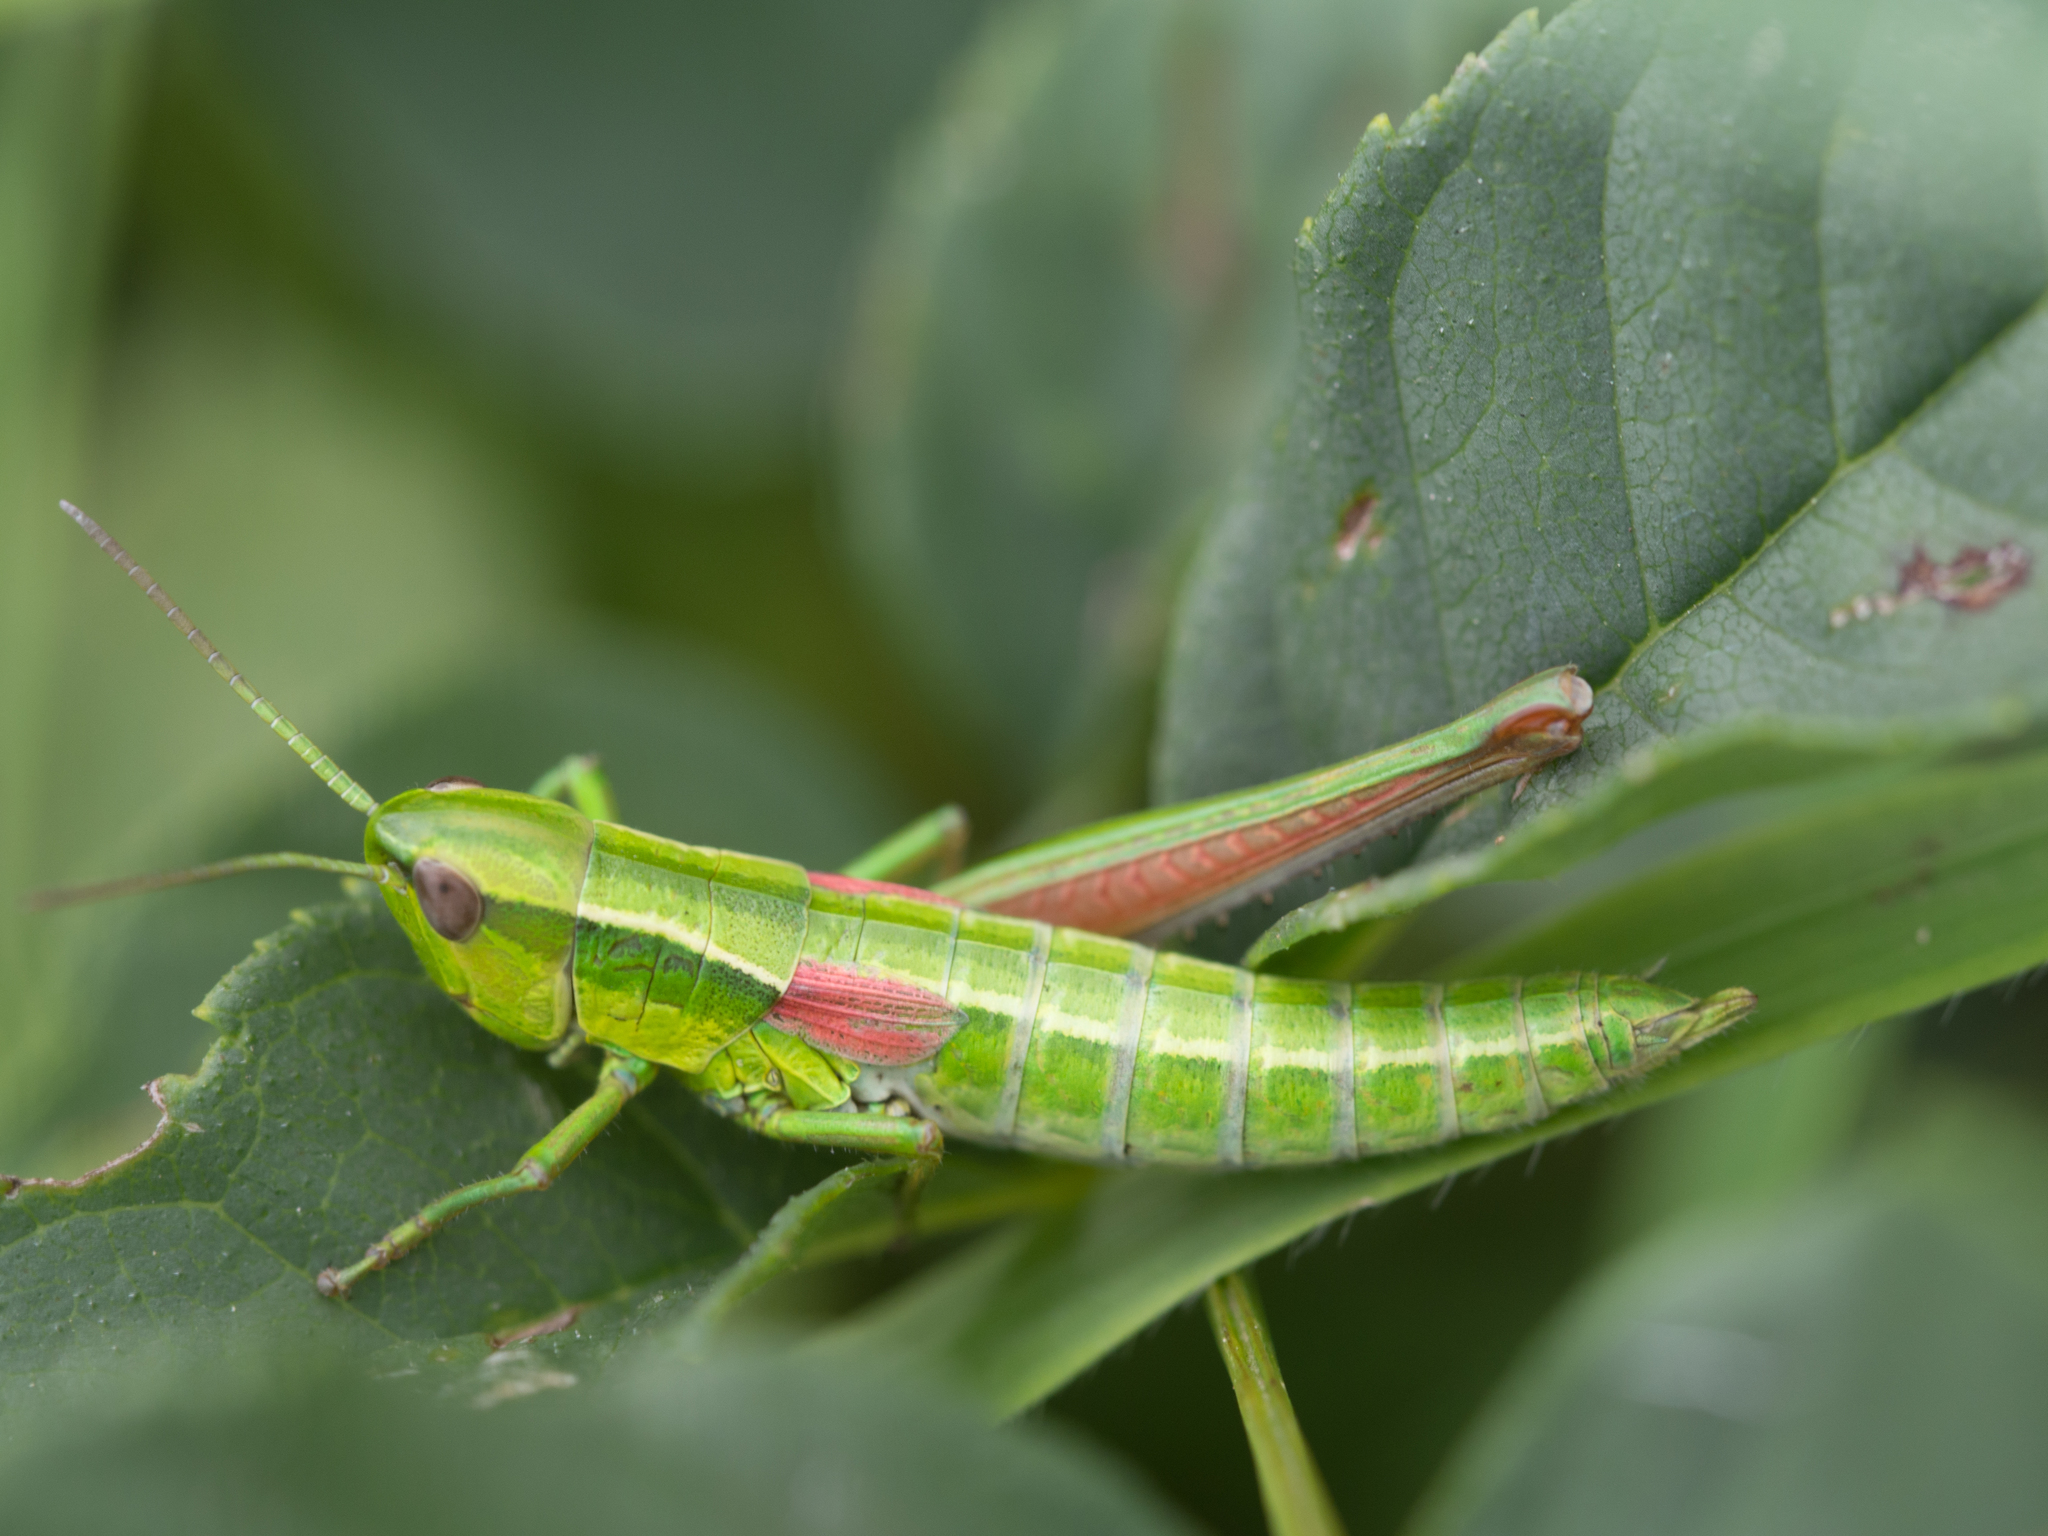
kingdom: Animalia
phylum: Arthropoda
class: Insecta
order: Orthoptera
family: Acrididae
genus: Euthystira
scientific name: Euthystira brachyptera
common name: Small gold grasshopper
